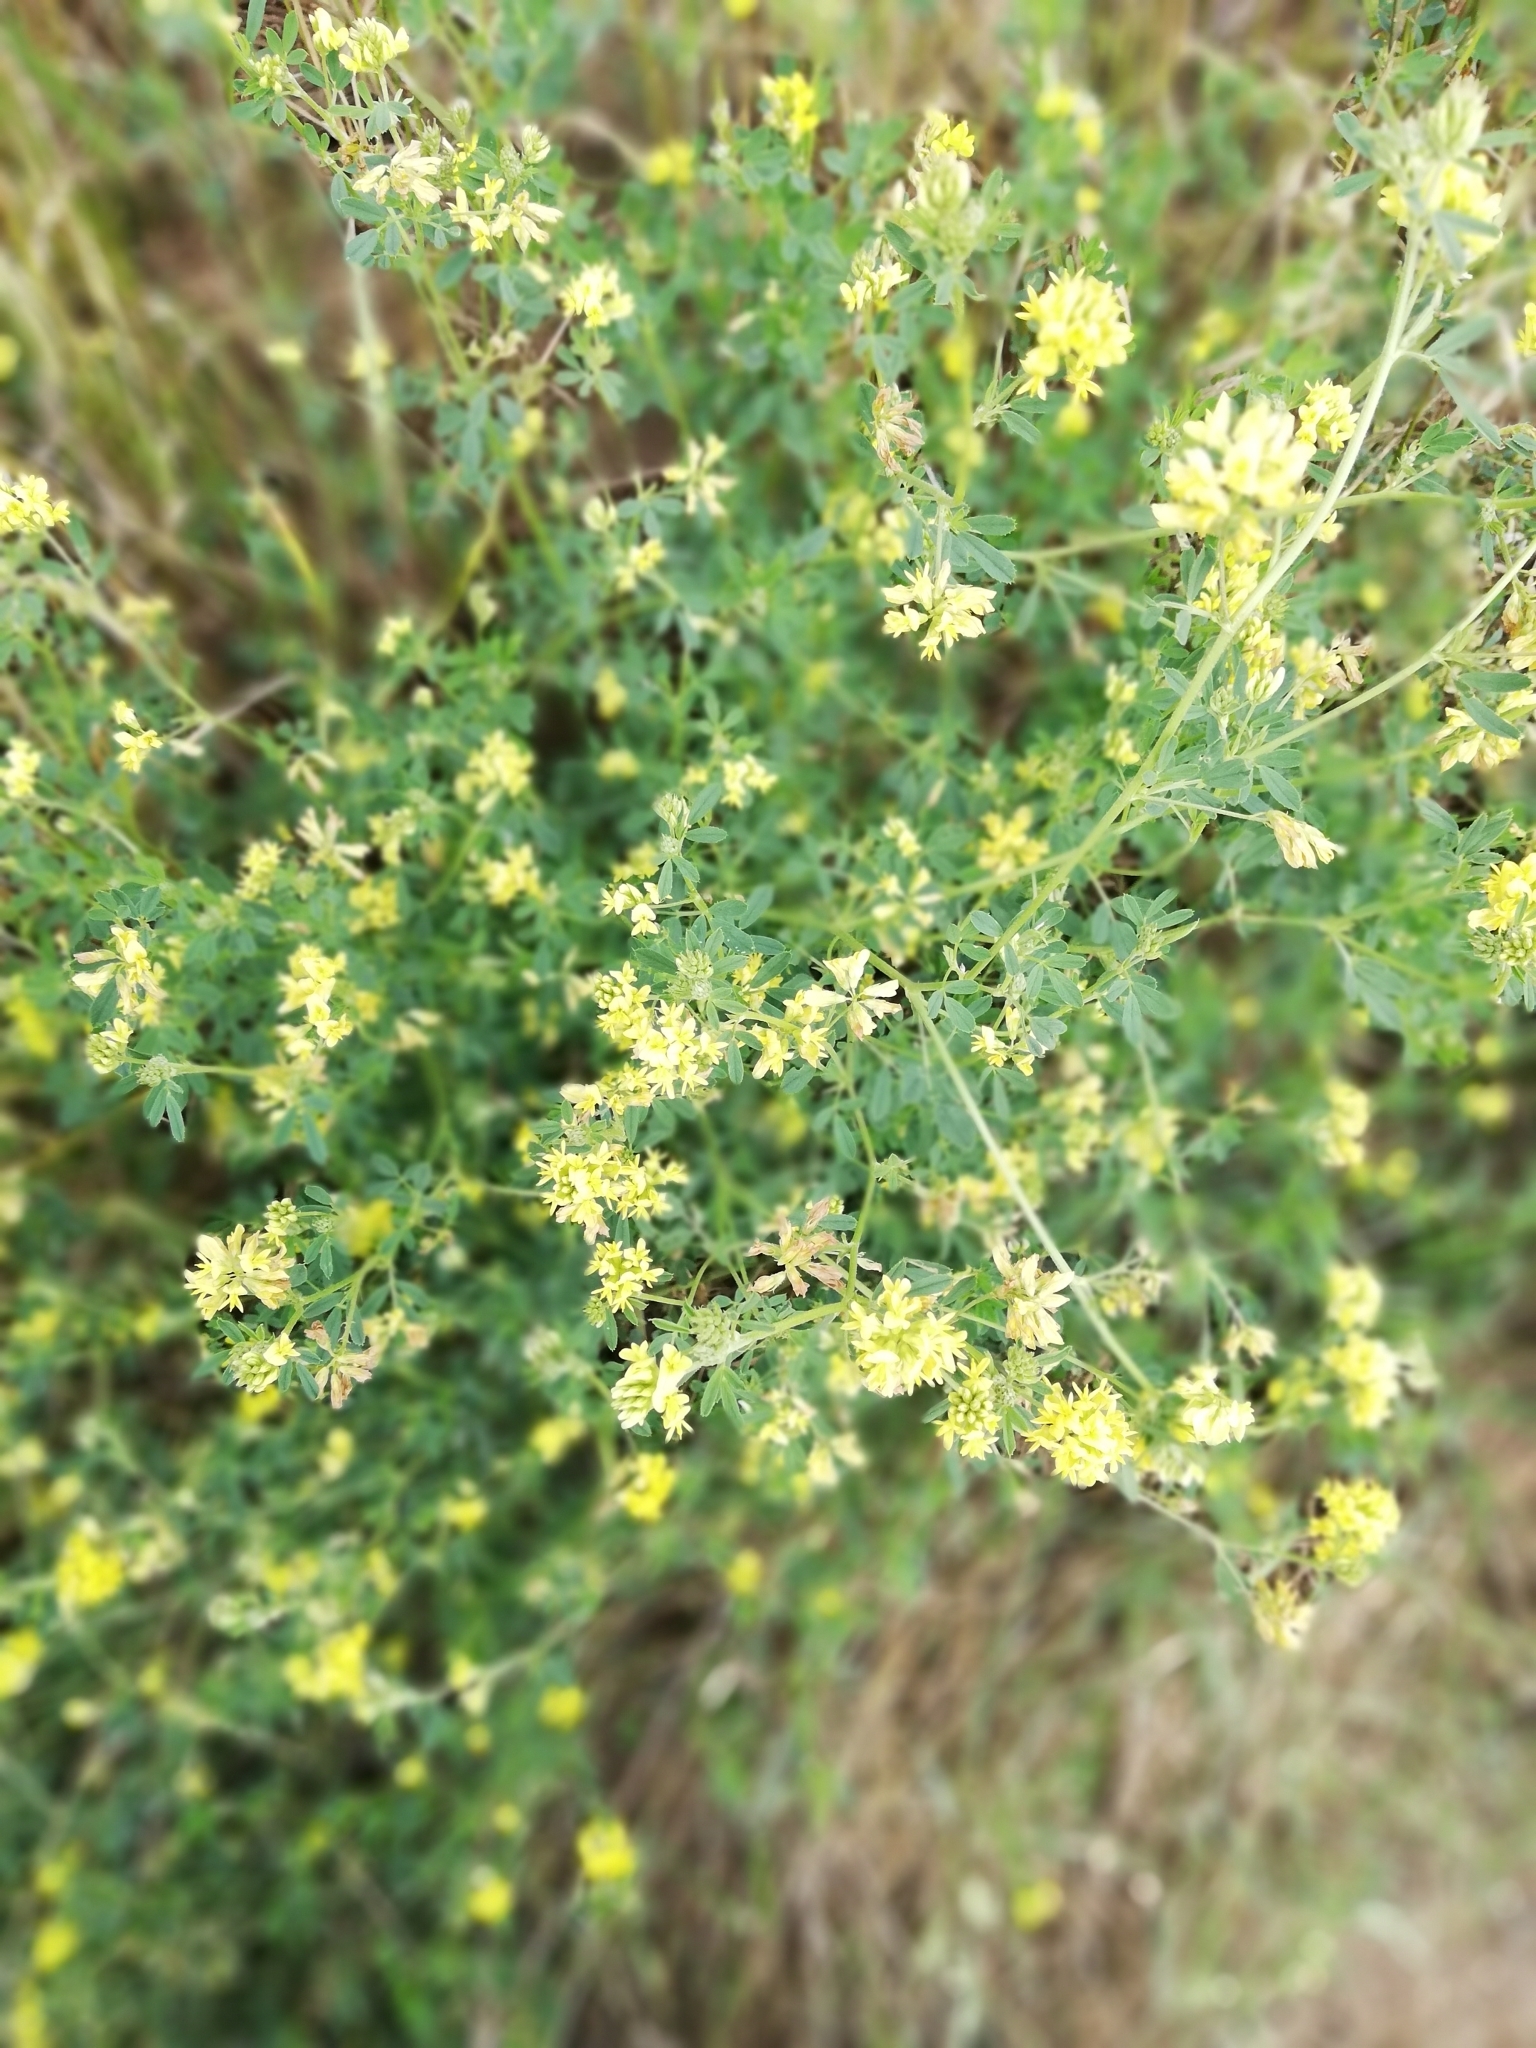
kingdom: Plantae
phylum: Tracheophyta
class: Magnoliopsida
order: Fabales
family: Fabaceae
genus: Medicago
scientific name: Medicago falcata
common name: Sickle medick
